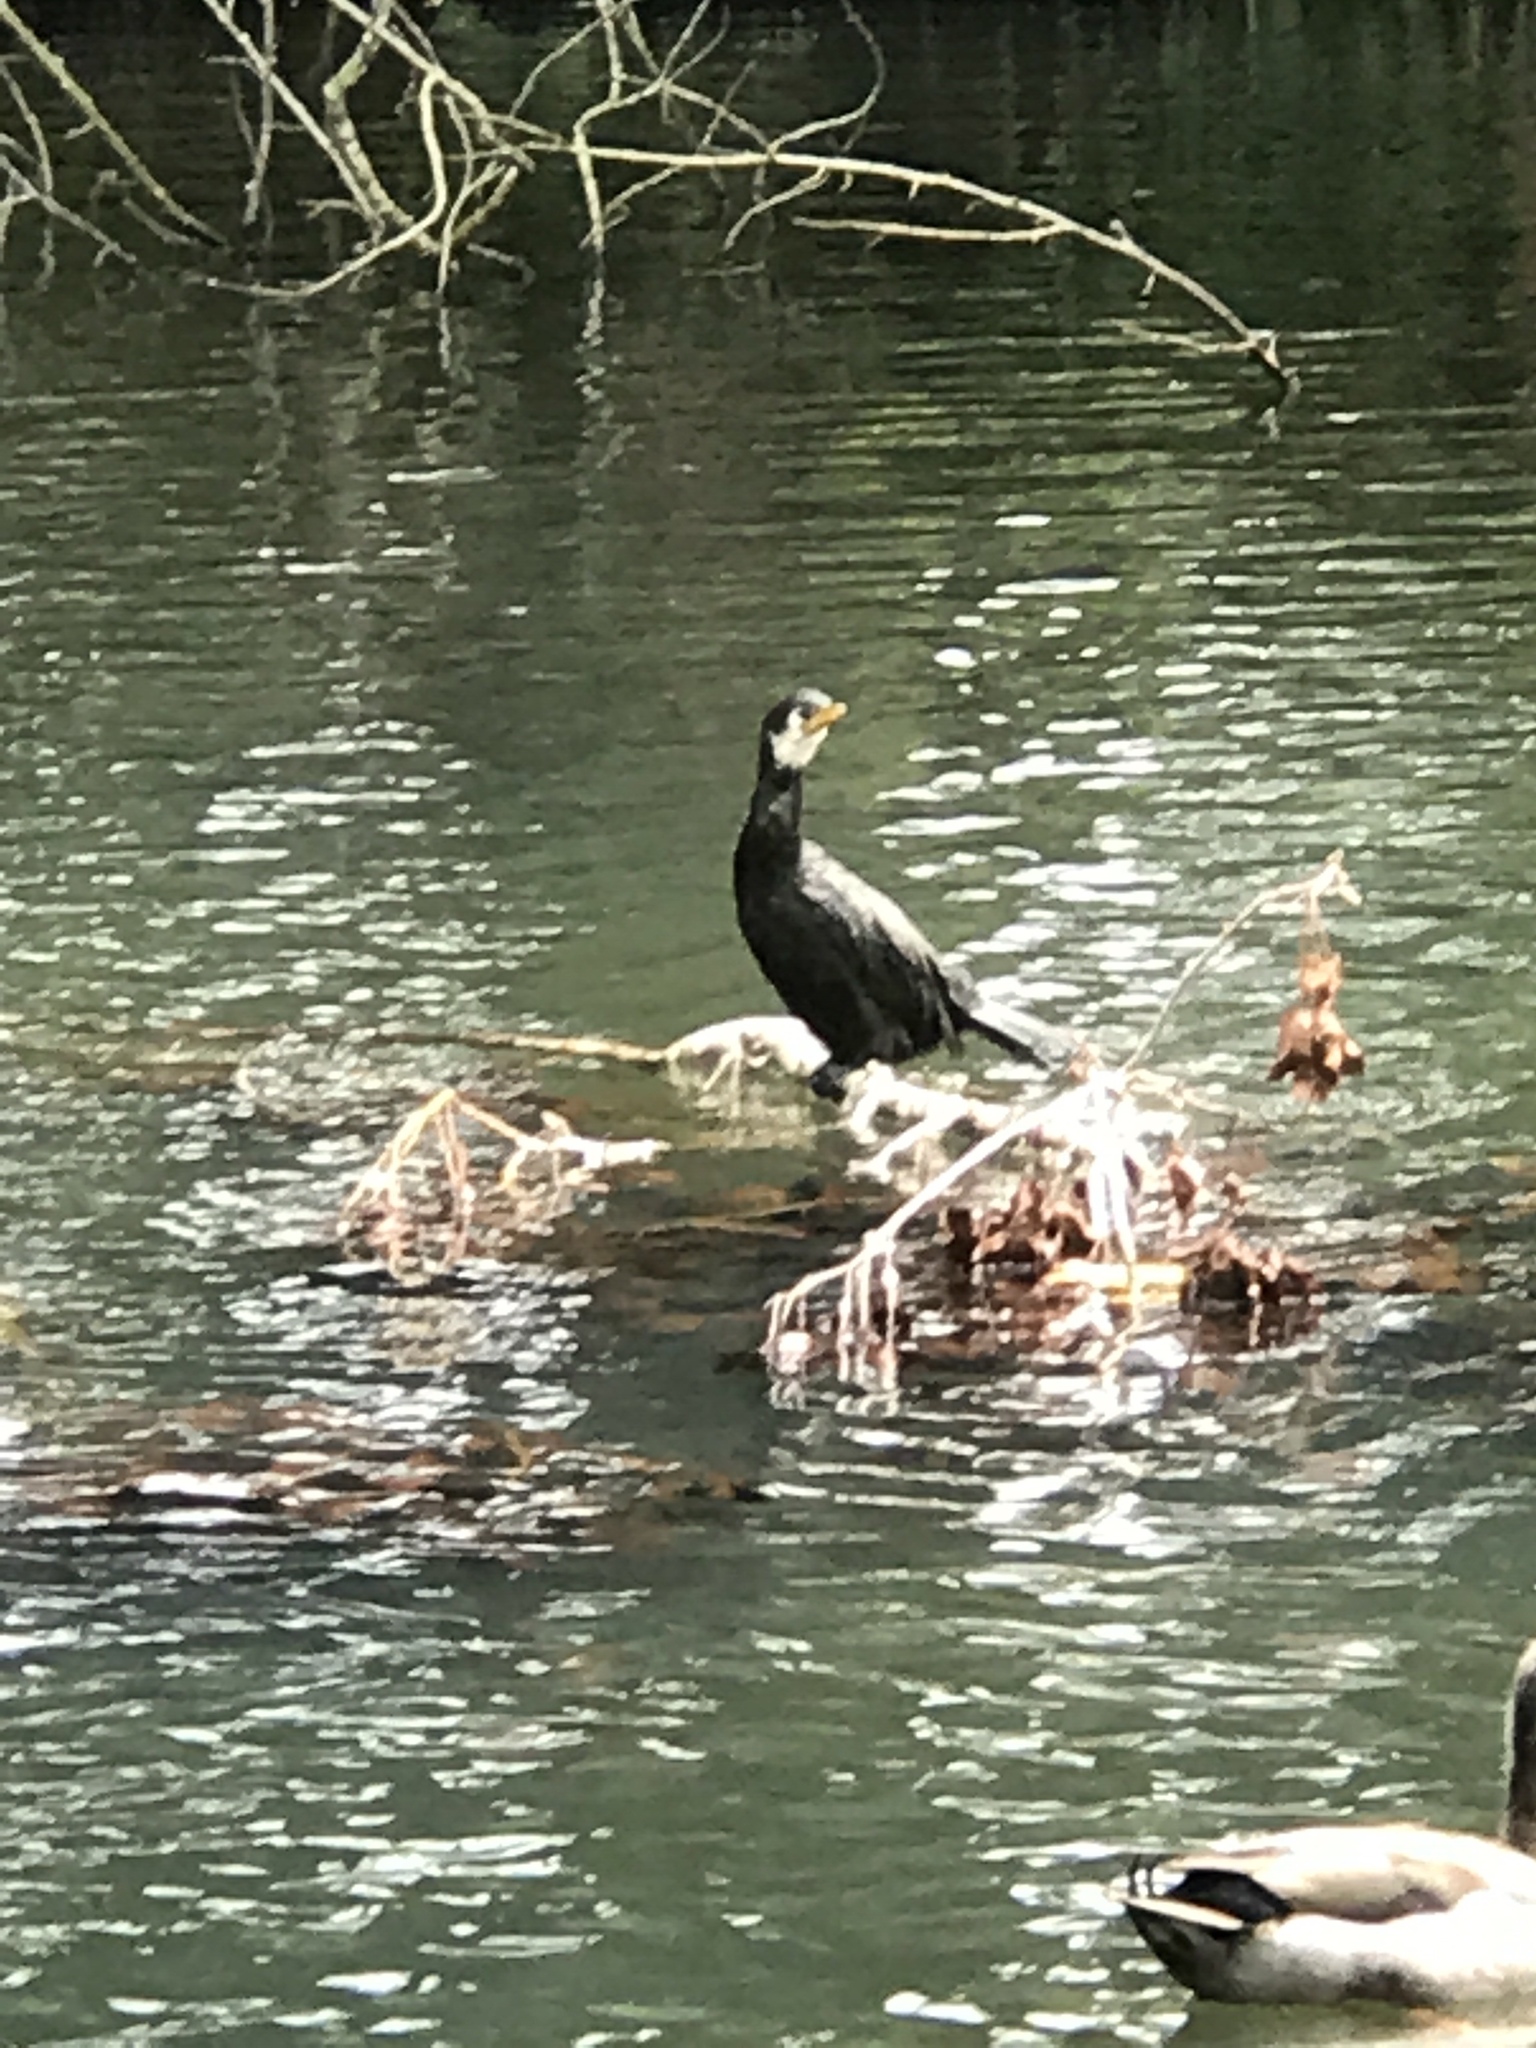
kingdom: Animalia
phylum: Chordata
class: Aves
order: Suliformes
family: Phalacrocoracidae
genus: Microcarbo
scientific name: Microcarbo melanoleucos
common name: Little pied cormorant
